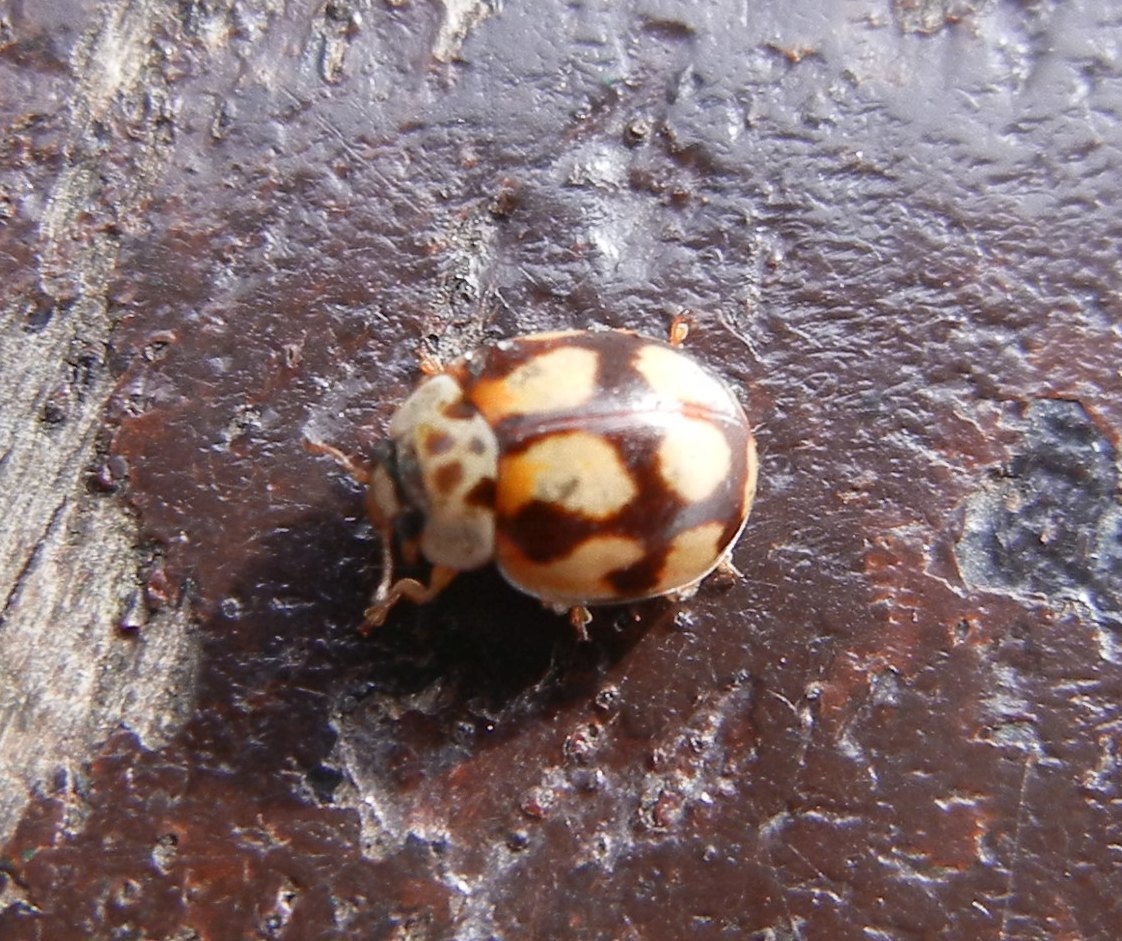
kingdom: Animalia
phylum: Arthropoda
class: Insecta
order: Coleoptera
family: Coccinellidae
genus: Adalia
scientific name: Adalia decempunctata
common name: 10-spot ladybird
